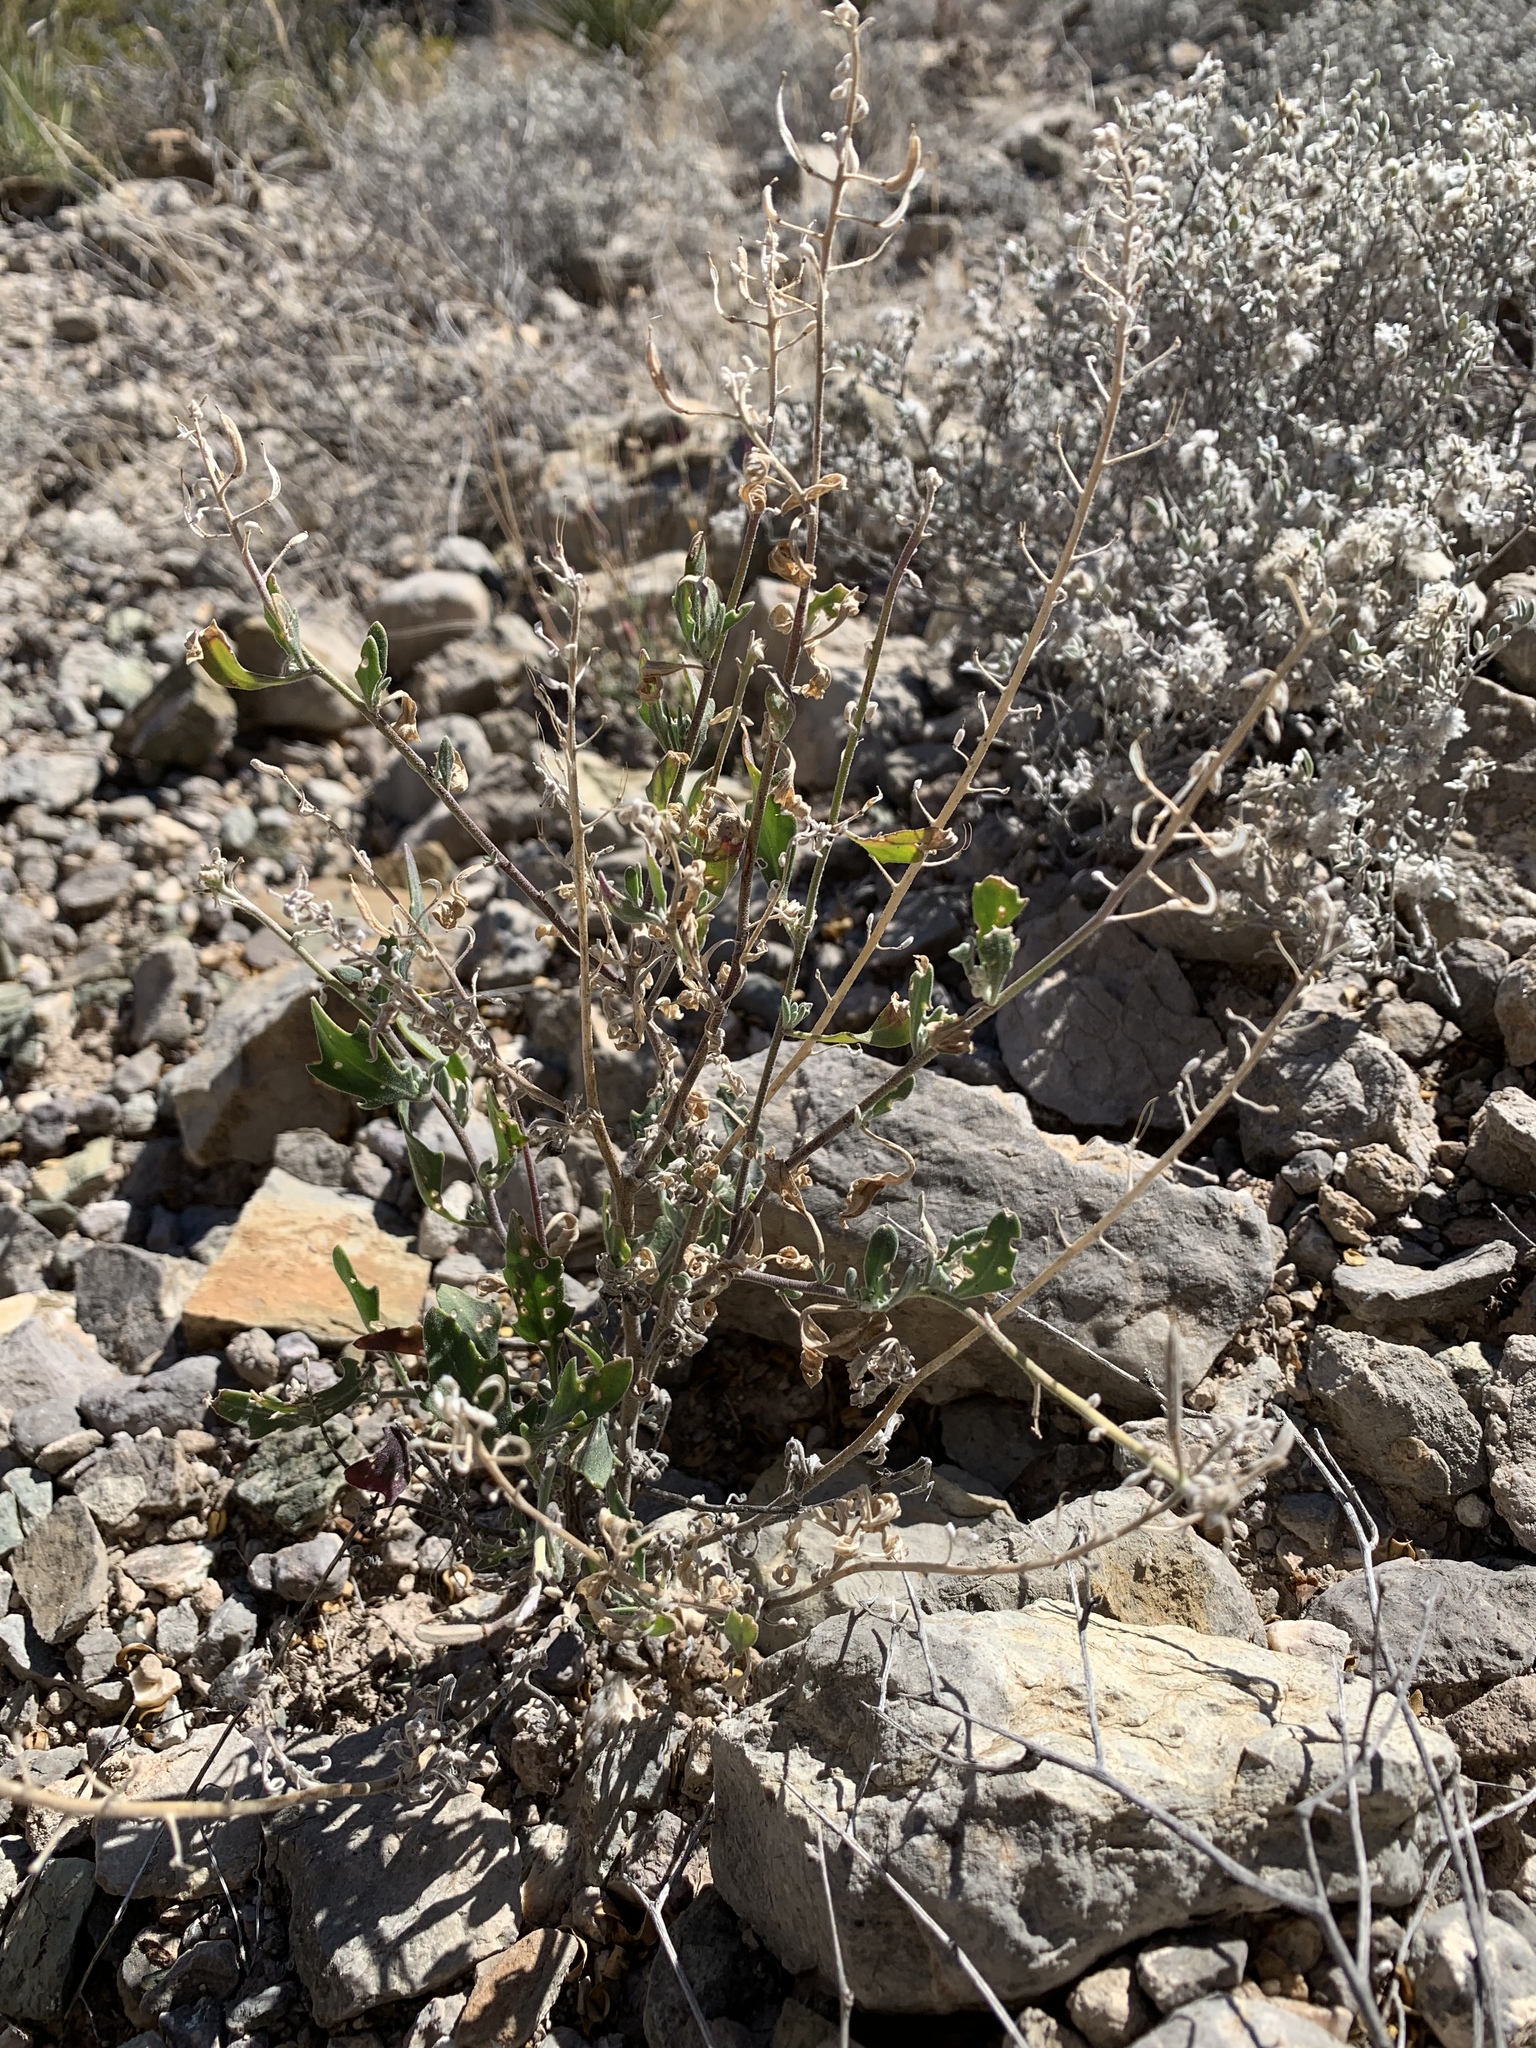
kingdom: Plantae
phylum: Tracheophyta
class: Magnoliopsida
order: Asterales
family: Asteraceae
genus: Flourensia
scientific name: Flourensia cernua
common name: Varnishbush
